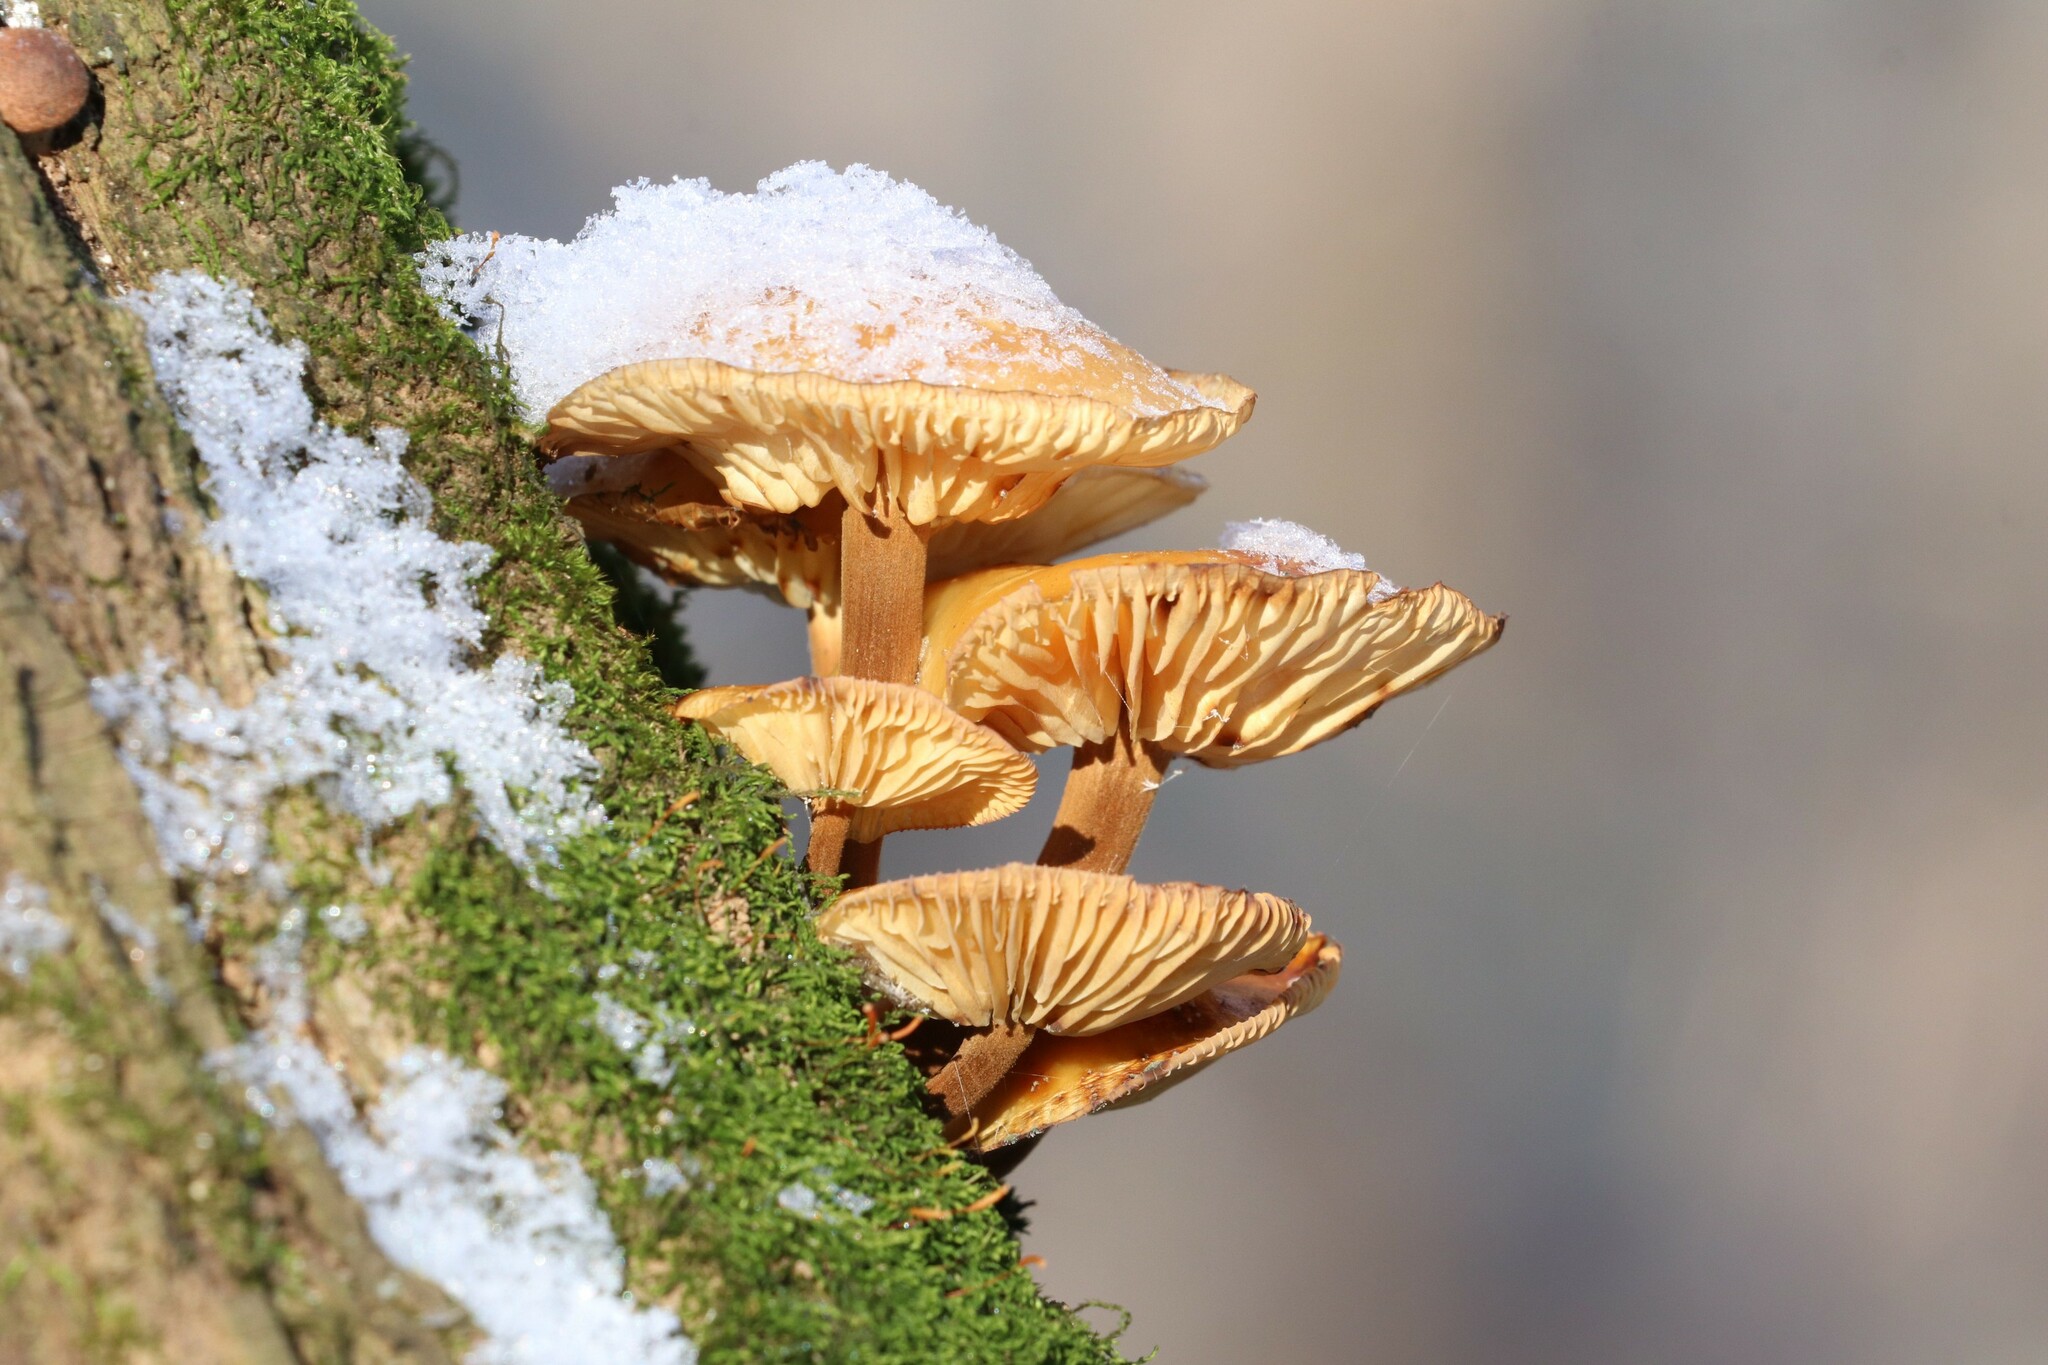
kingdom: Fungi
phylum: Basidiomycota
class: Agaricomycetes
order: Agaricales
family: Physalacriaceae
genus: Flammulina
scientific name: Flammulina
